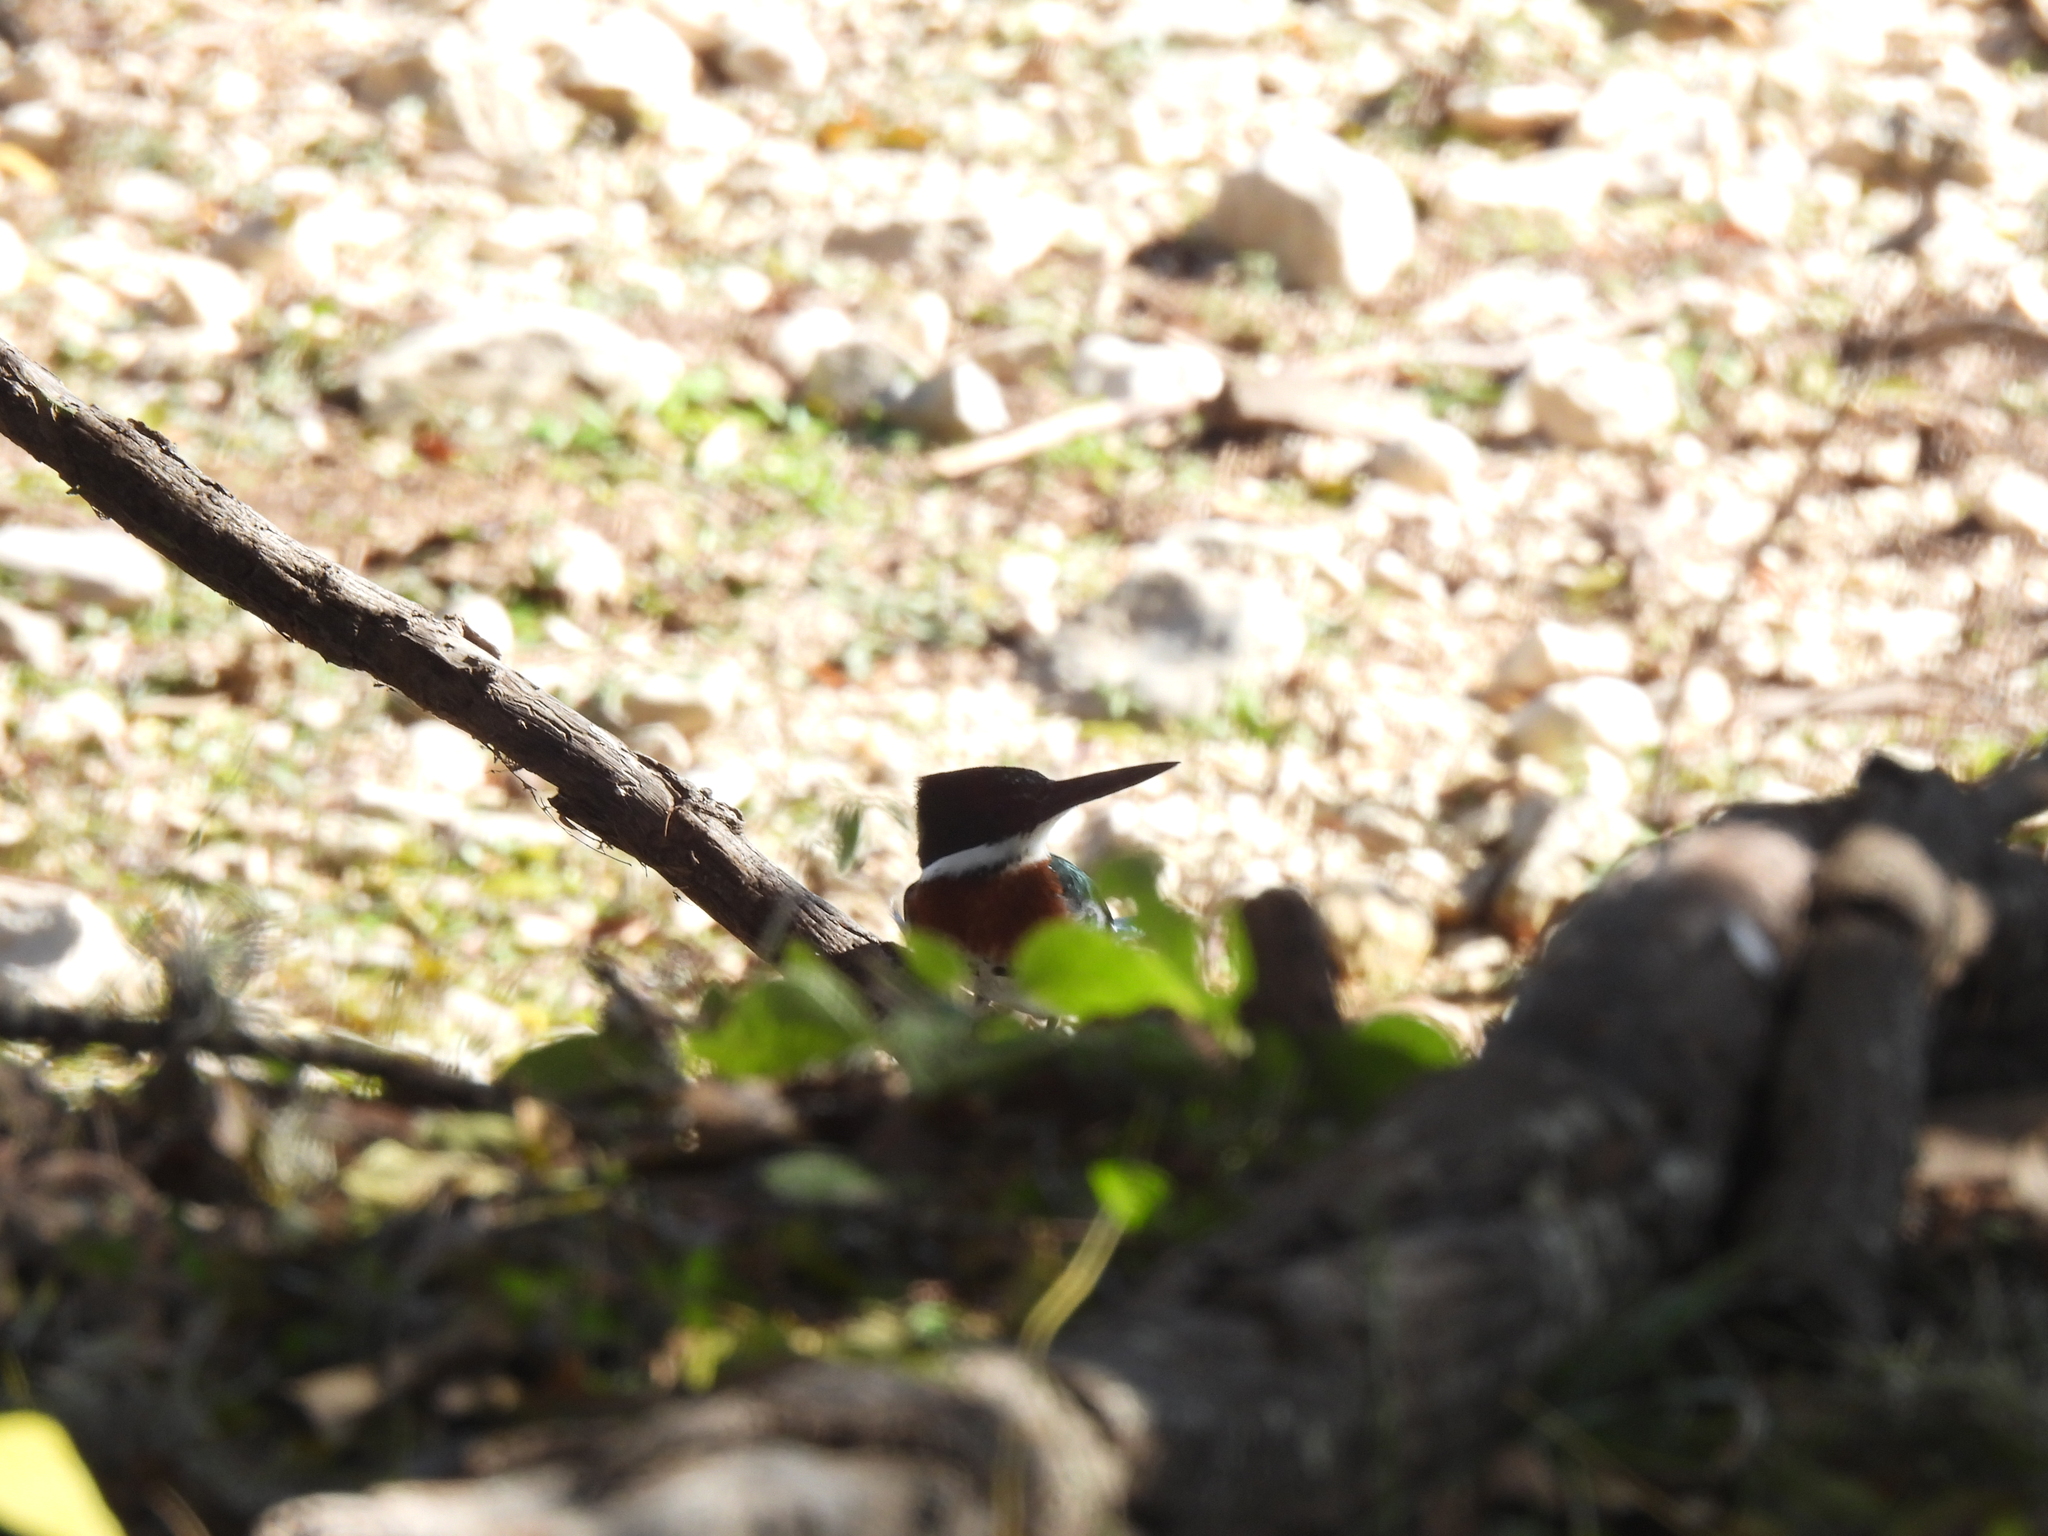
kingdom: Animalia
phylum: Chordata
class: Aves
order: Coraciiformes
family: Alcedinidae
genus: Chloroceryle
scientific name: Chloroceryle americana
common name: Green kingfisher
